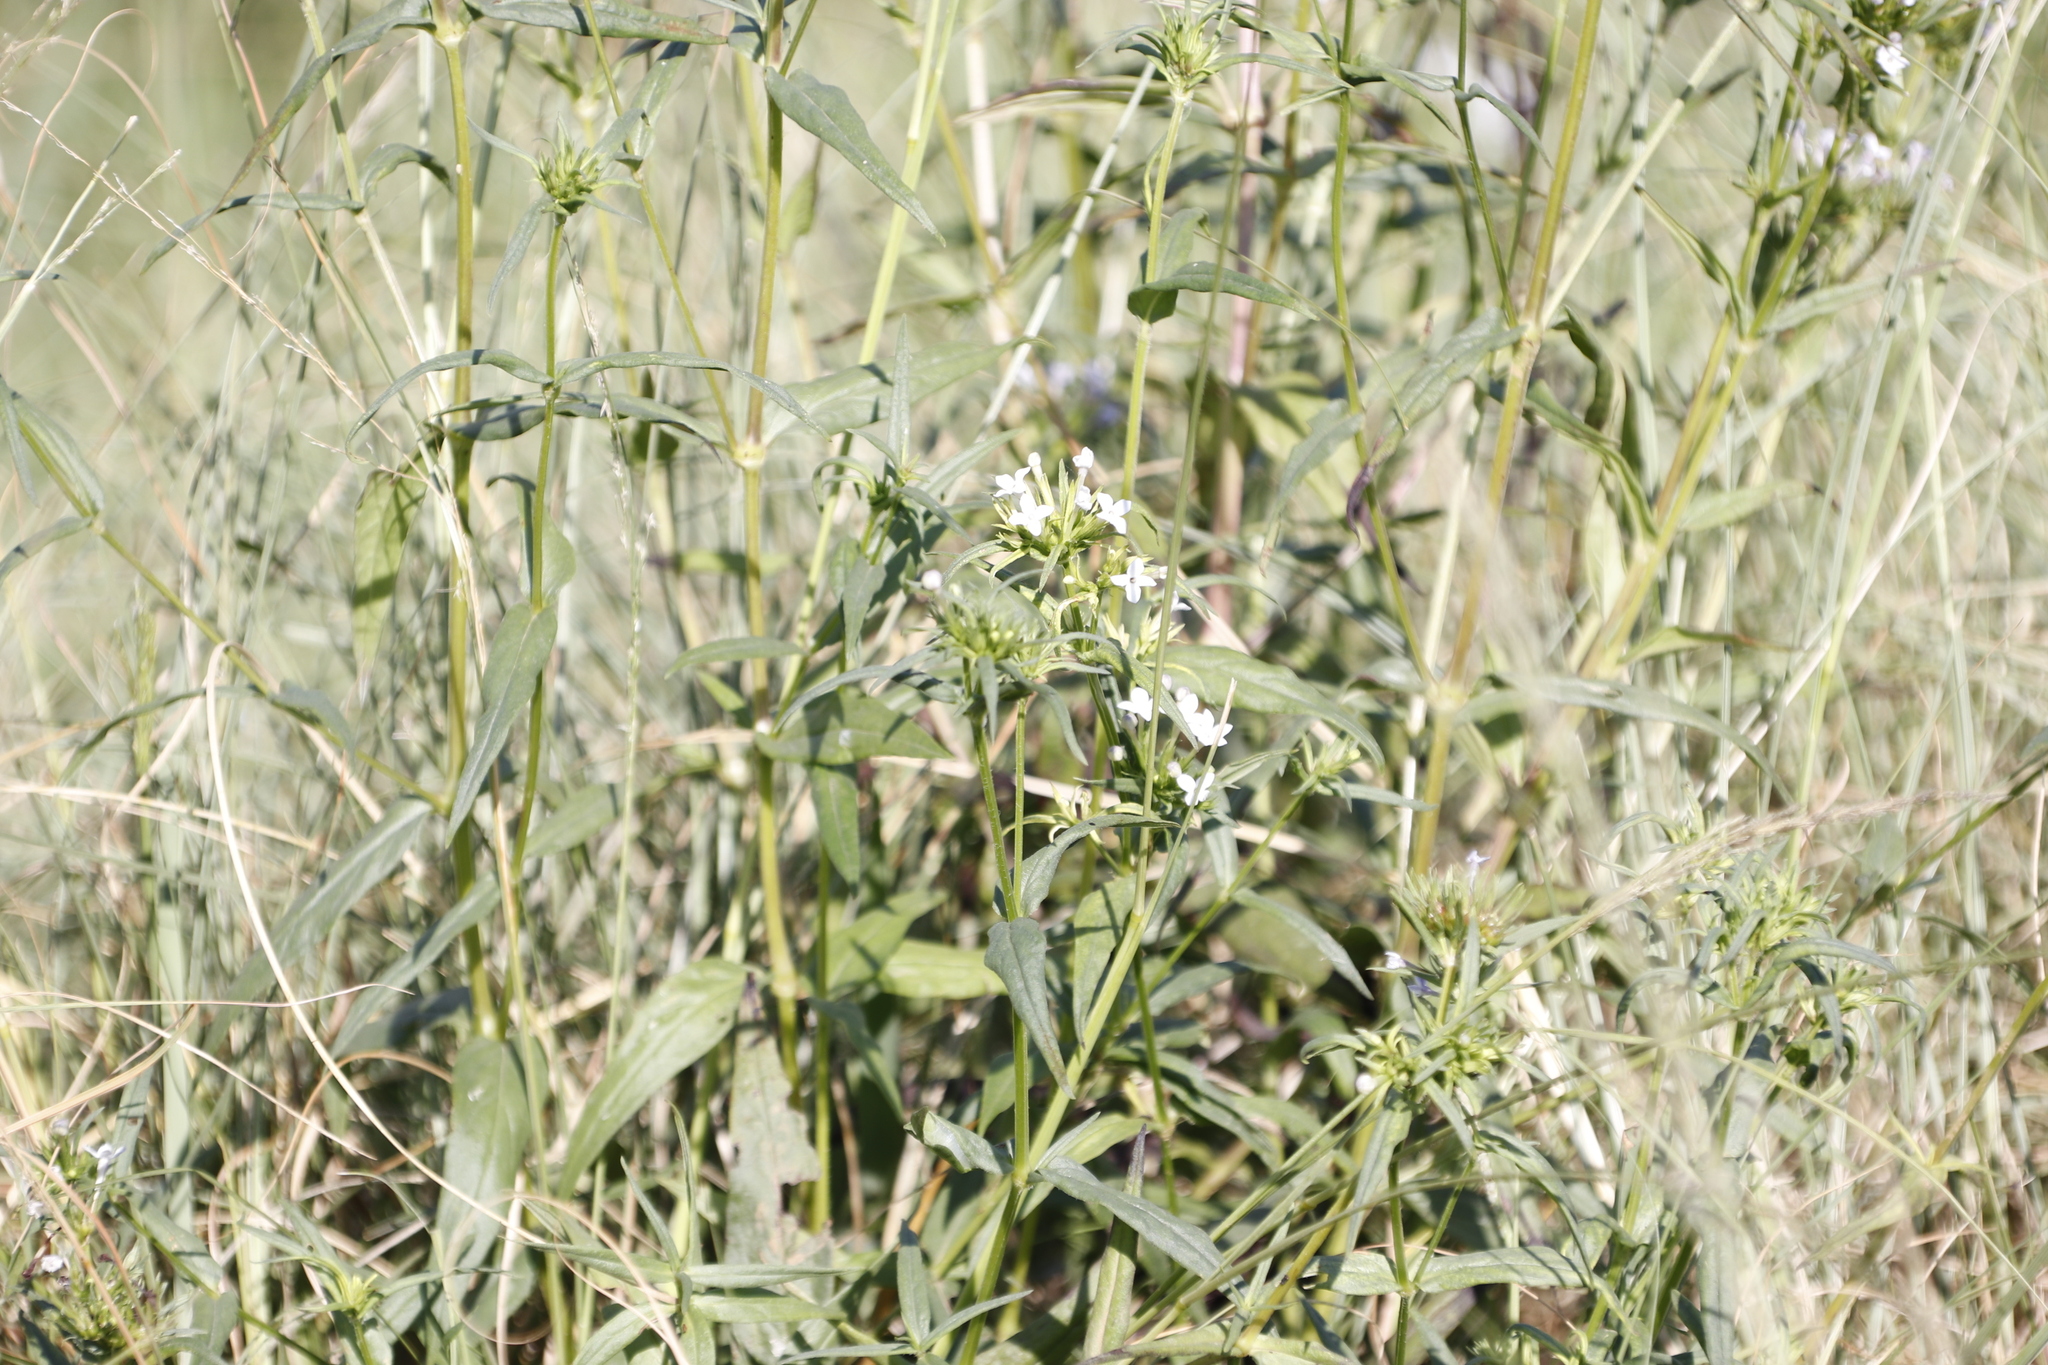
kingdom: Plantae
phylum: Tracheophyta
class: Magnoliopsida
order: Gentianales
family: Rubiaceae
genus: Conostomium
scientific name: Conostomium natalense
